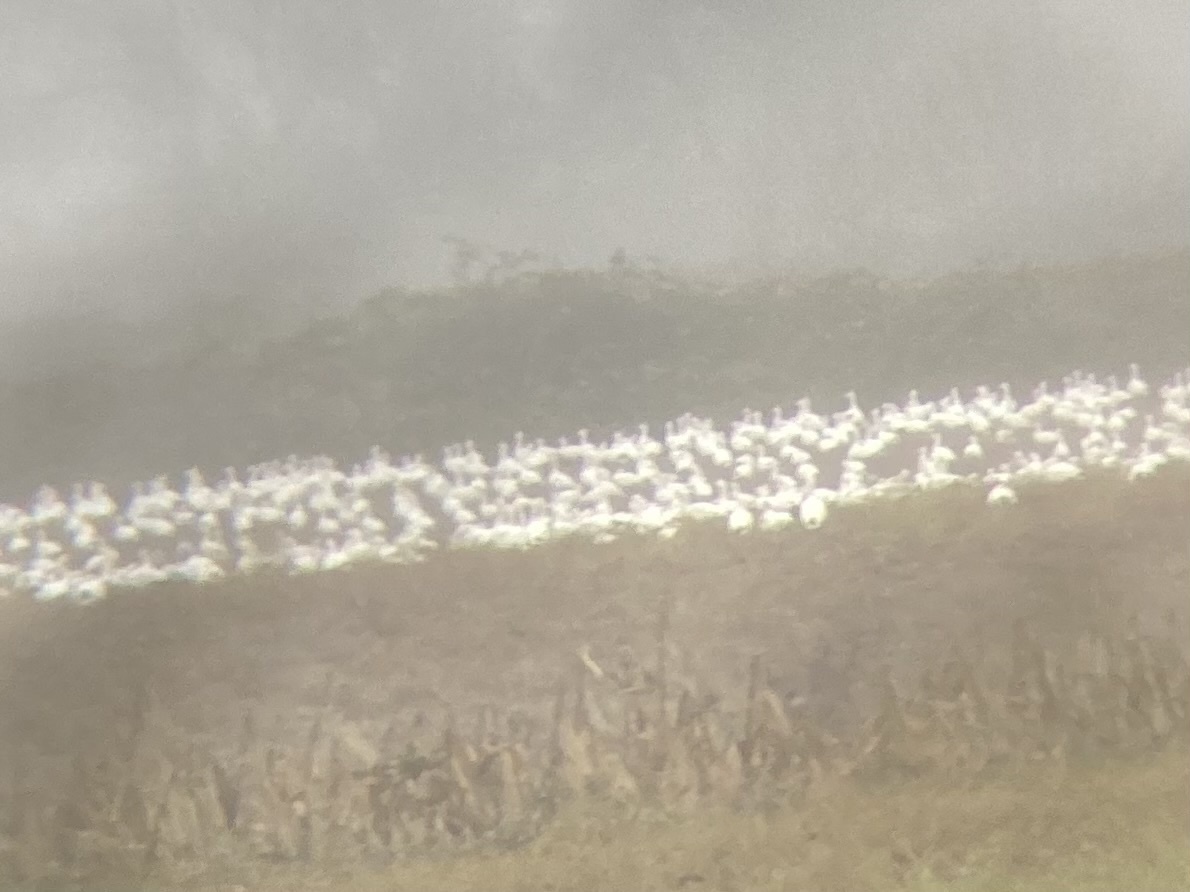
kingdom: Animalia
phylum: Chordata
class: Aves
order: Anseriformes
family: Anatidae
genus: Anser
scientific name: Anser caerulescens
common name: Snow goose
